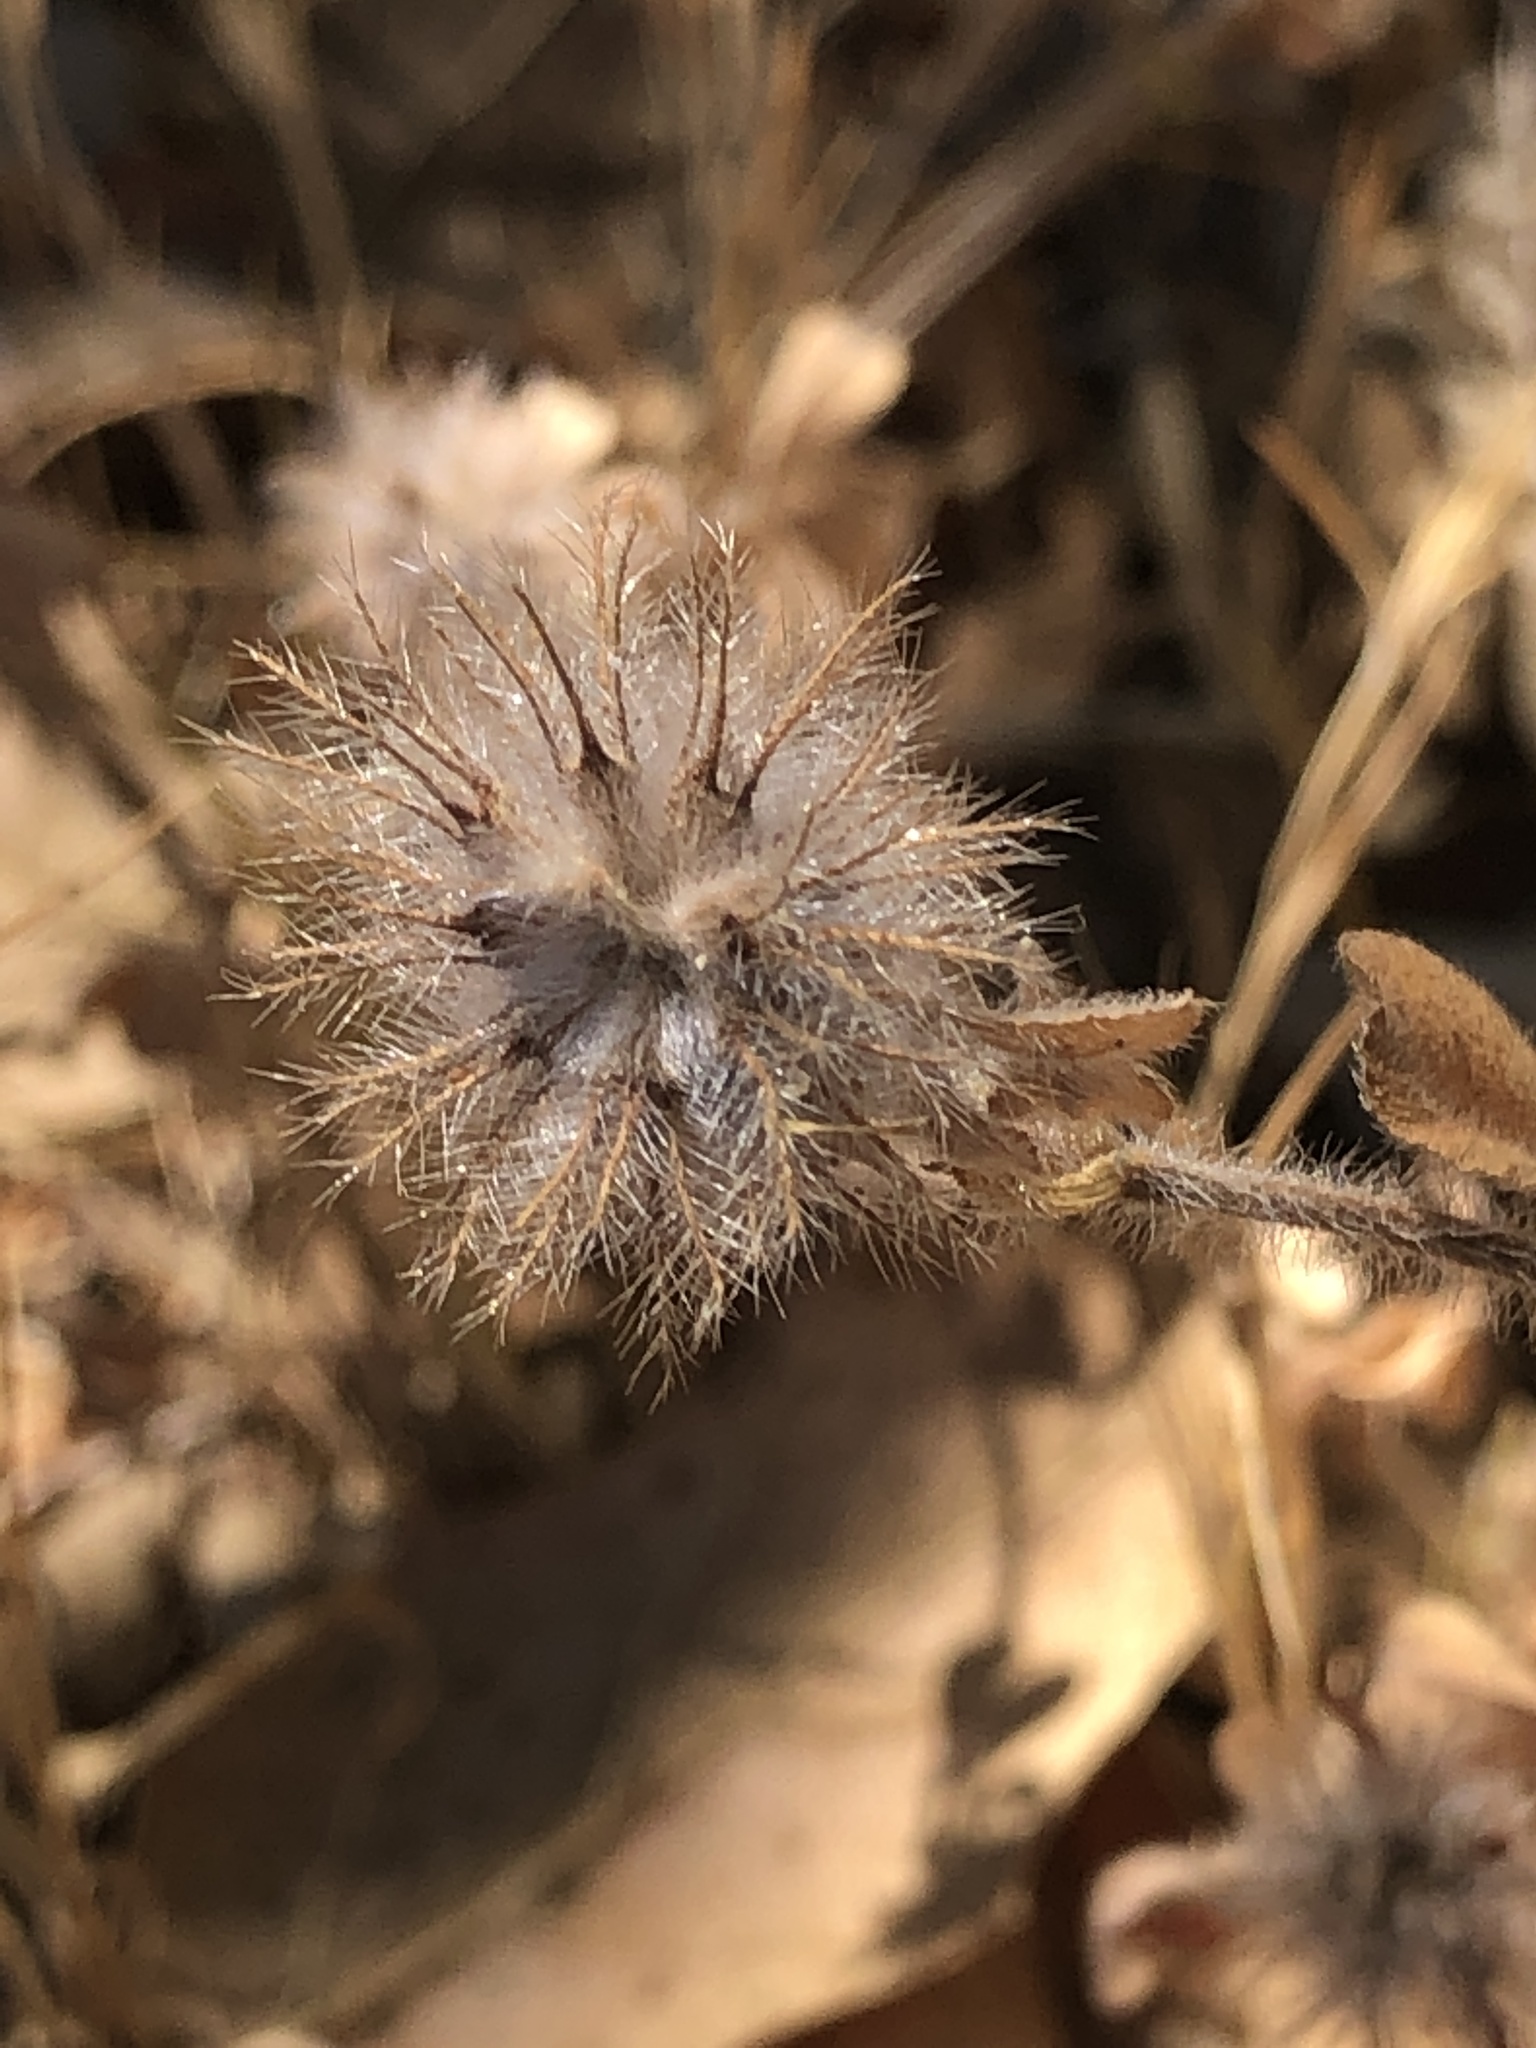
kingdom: Plantae
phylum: Tracheophyta
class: Magnoliopsida
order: Fabales
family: Fabaceae
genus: Trifolium
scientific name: Trifolium hirtum
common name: Rose clover
